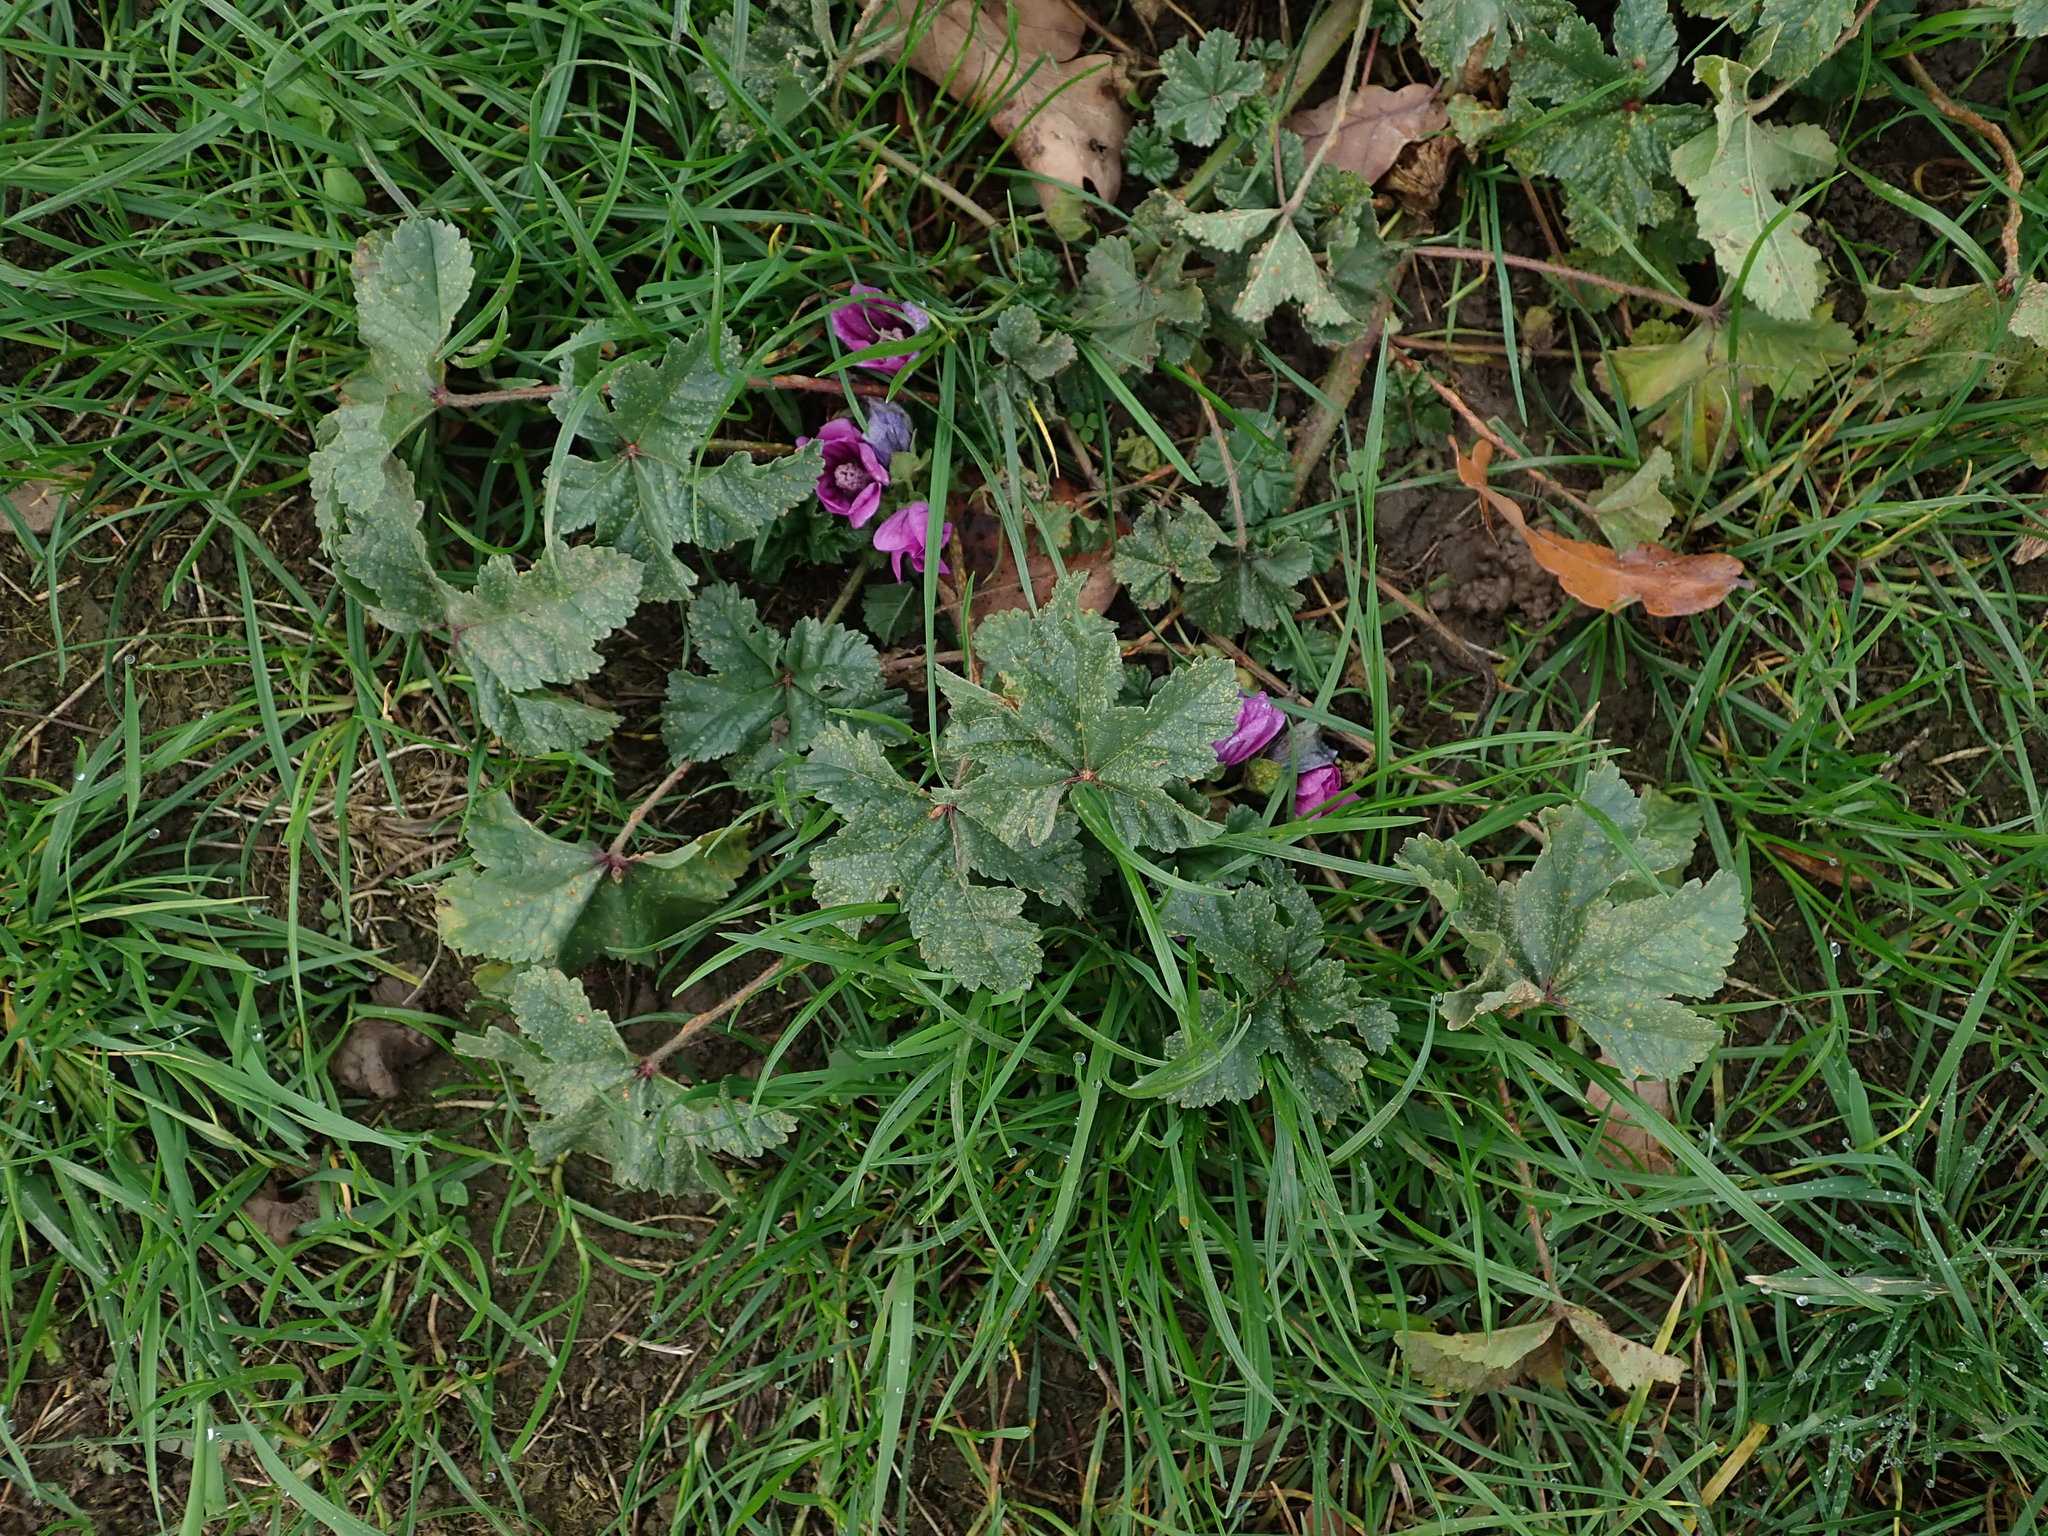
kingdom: Plantae
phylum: Tracheophyta
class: Magnoliopsida
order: Malvales
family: Malvaceae
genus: Malva
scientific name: Malva sylvestris
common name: Common mallow
